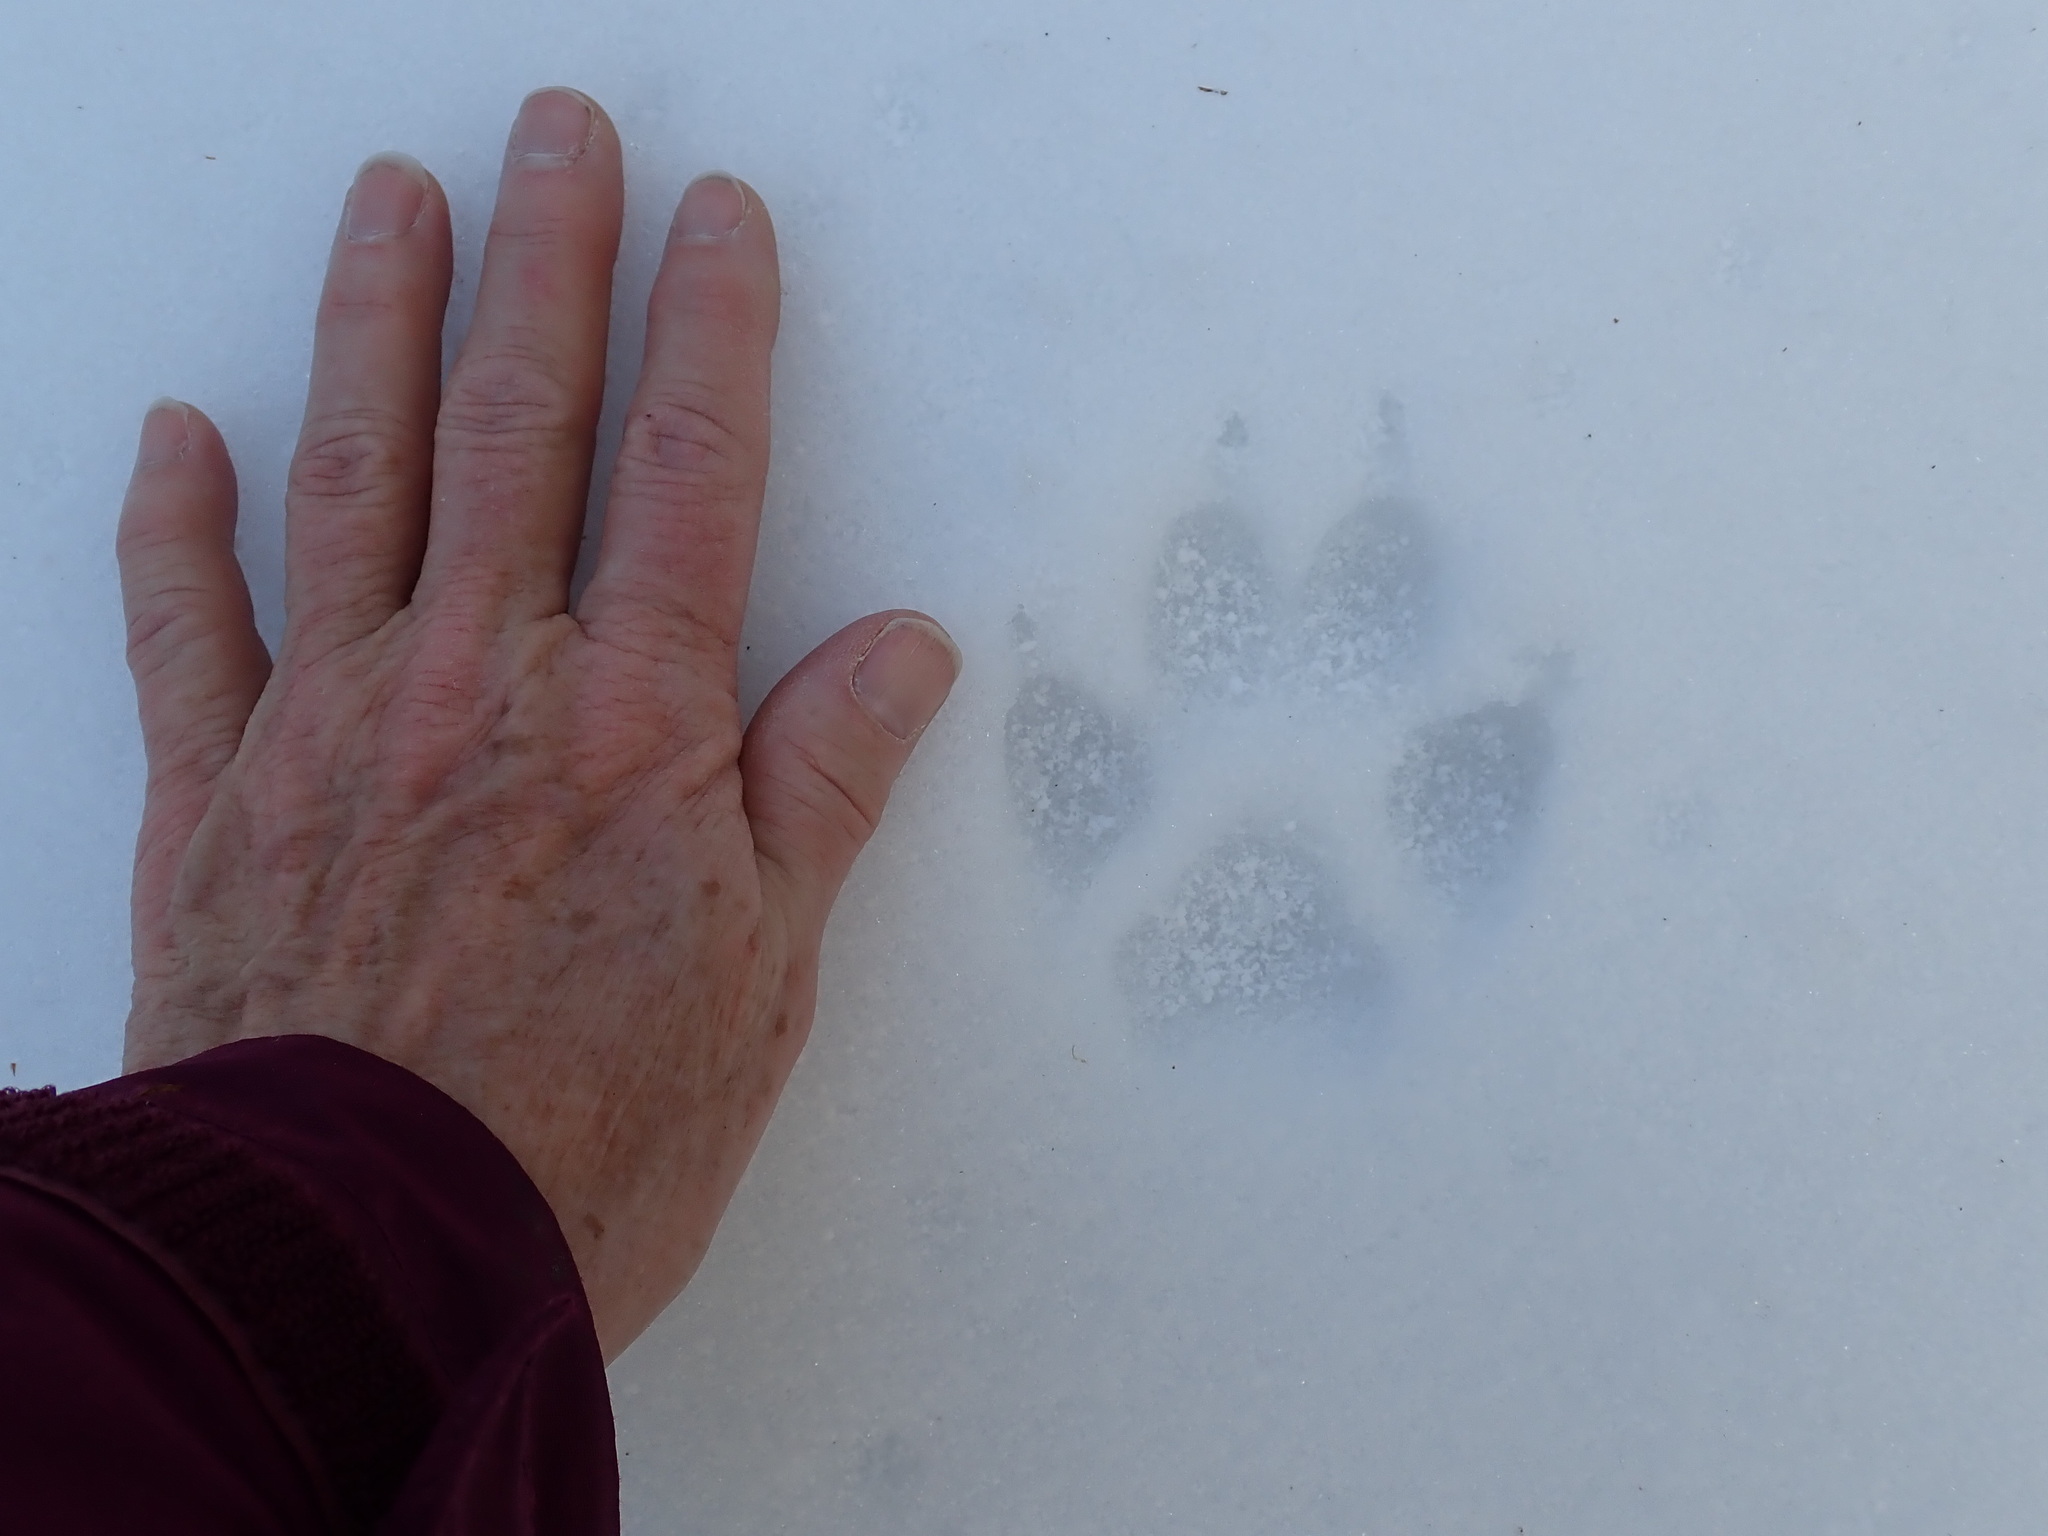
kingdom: Animalia
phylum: Chordata
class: Mammalia
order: Carnivora
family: Canidae
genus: Canis
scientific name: Canis latrans
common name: Coyote
